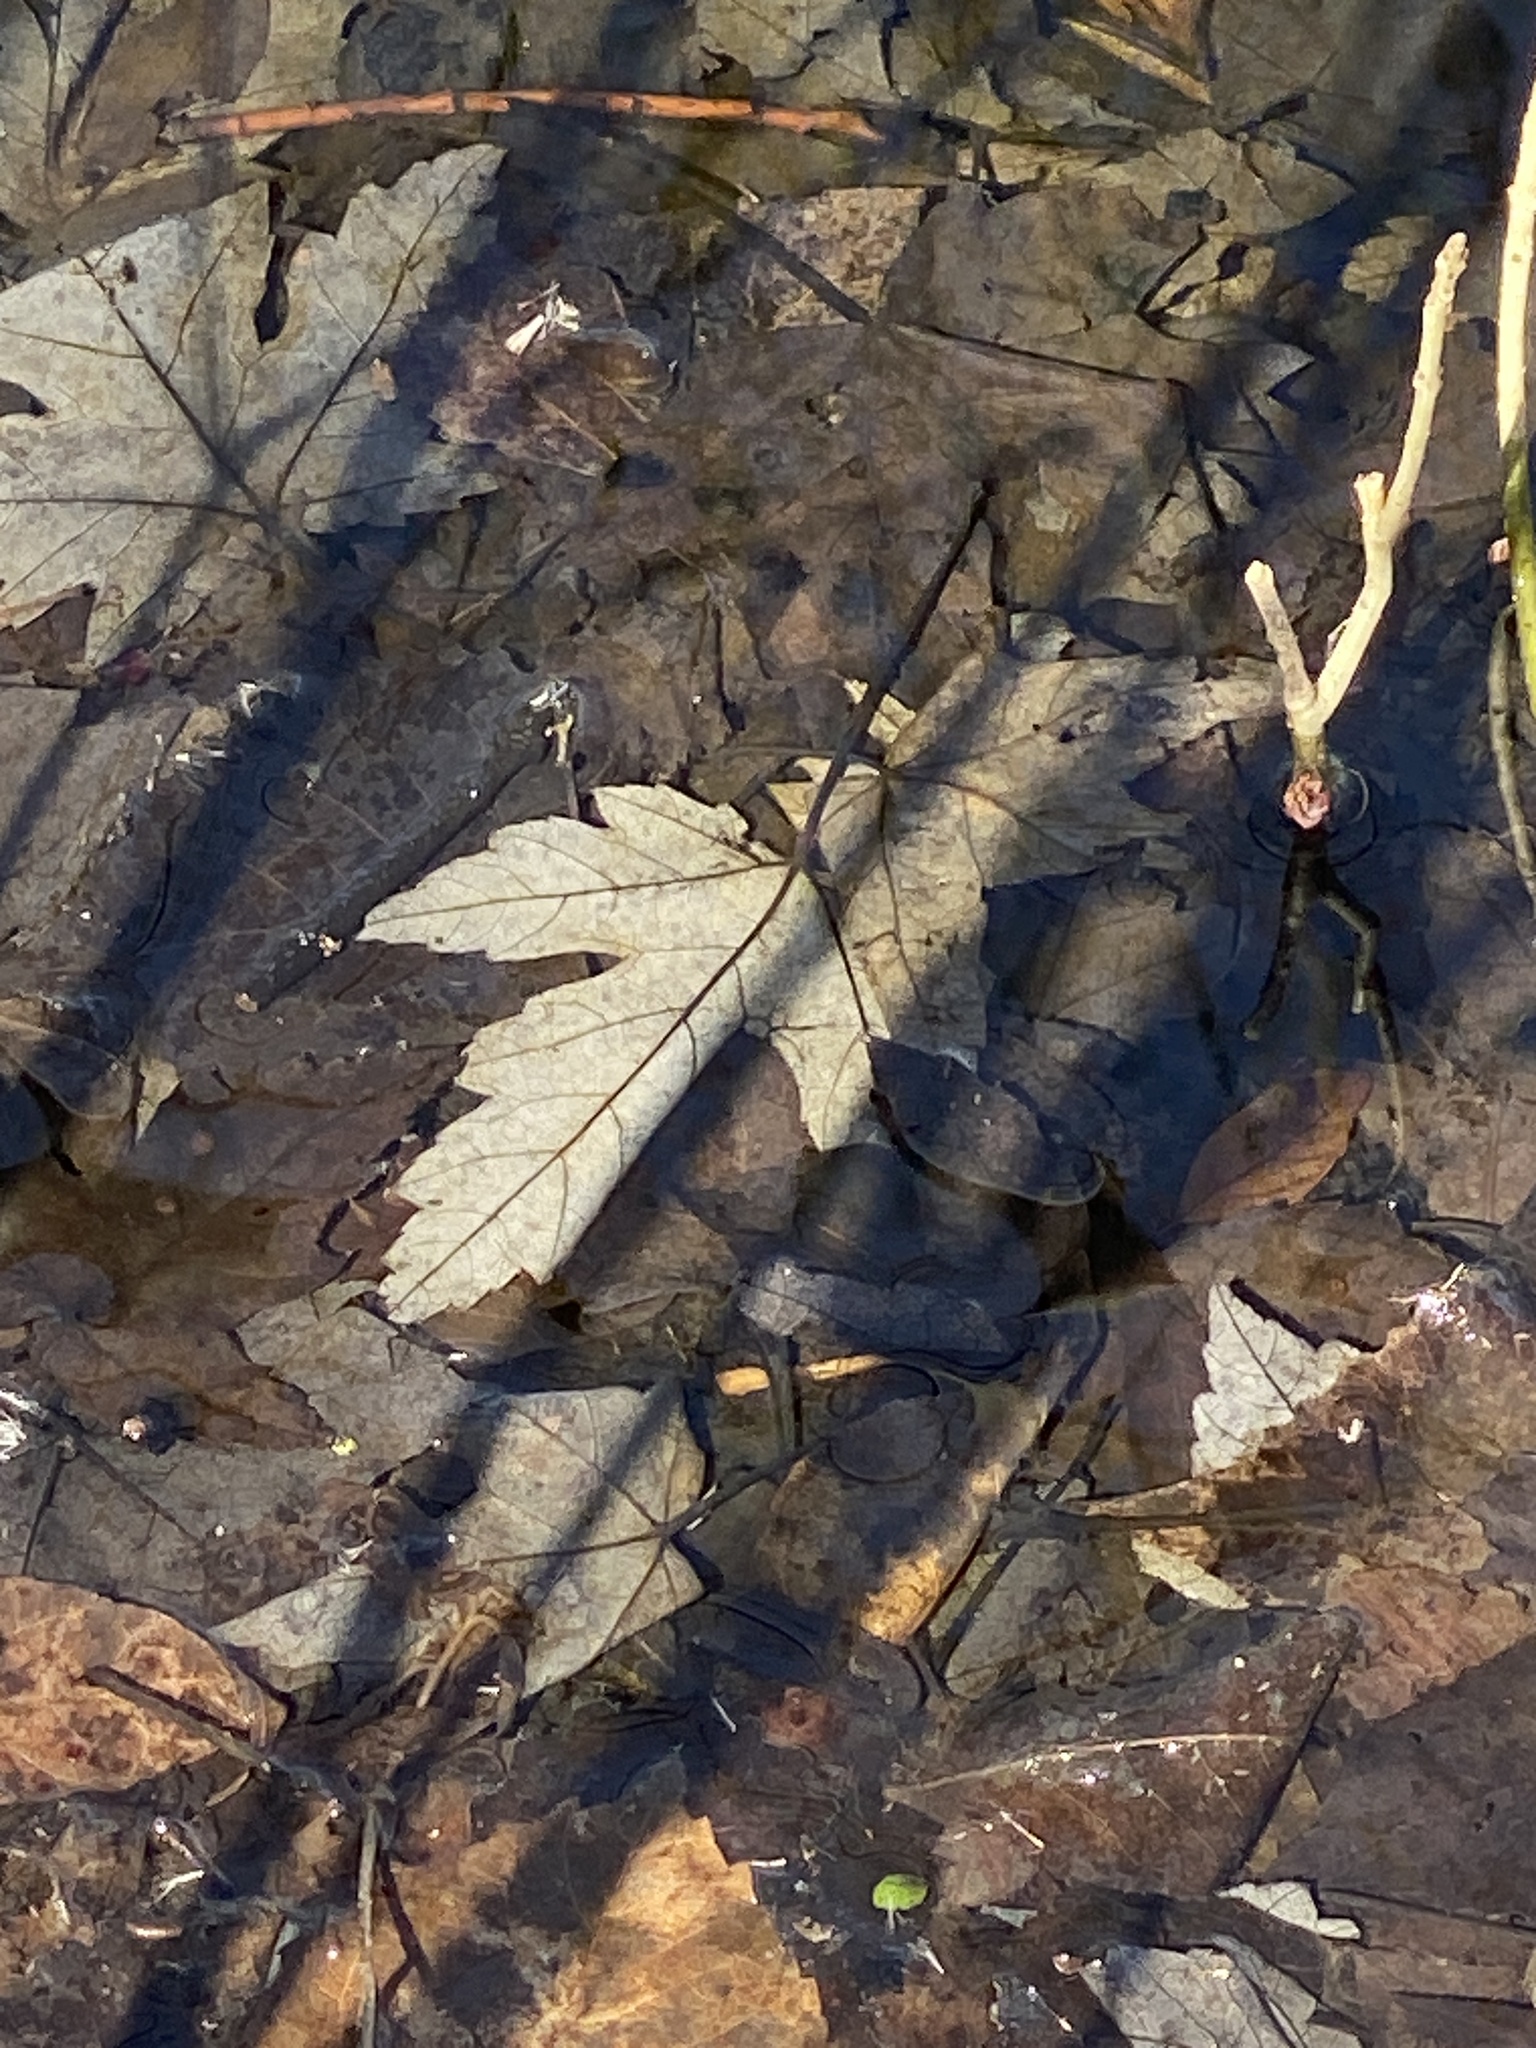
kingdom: Plantae
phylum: Tracheophyta
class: Magnoliopsida
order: Sapindales
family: Sapindaceae
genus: Acer
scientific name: Acer saccharinum
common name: Silver maple
